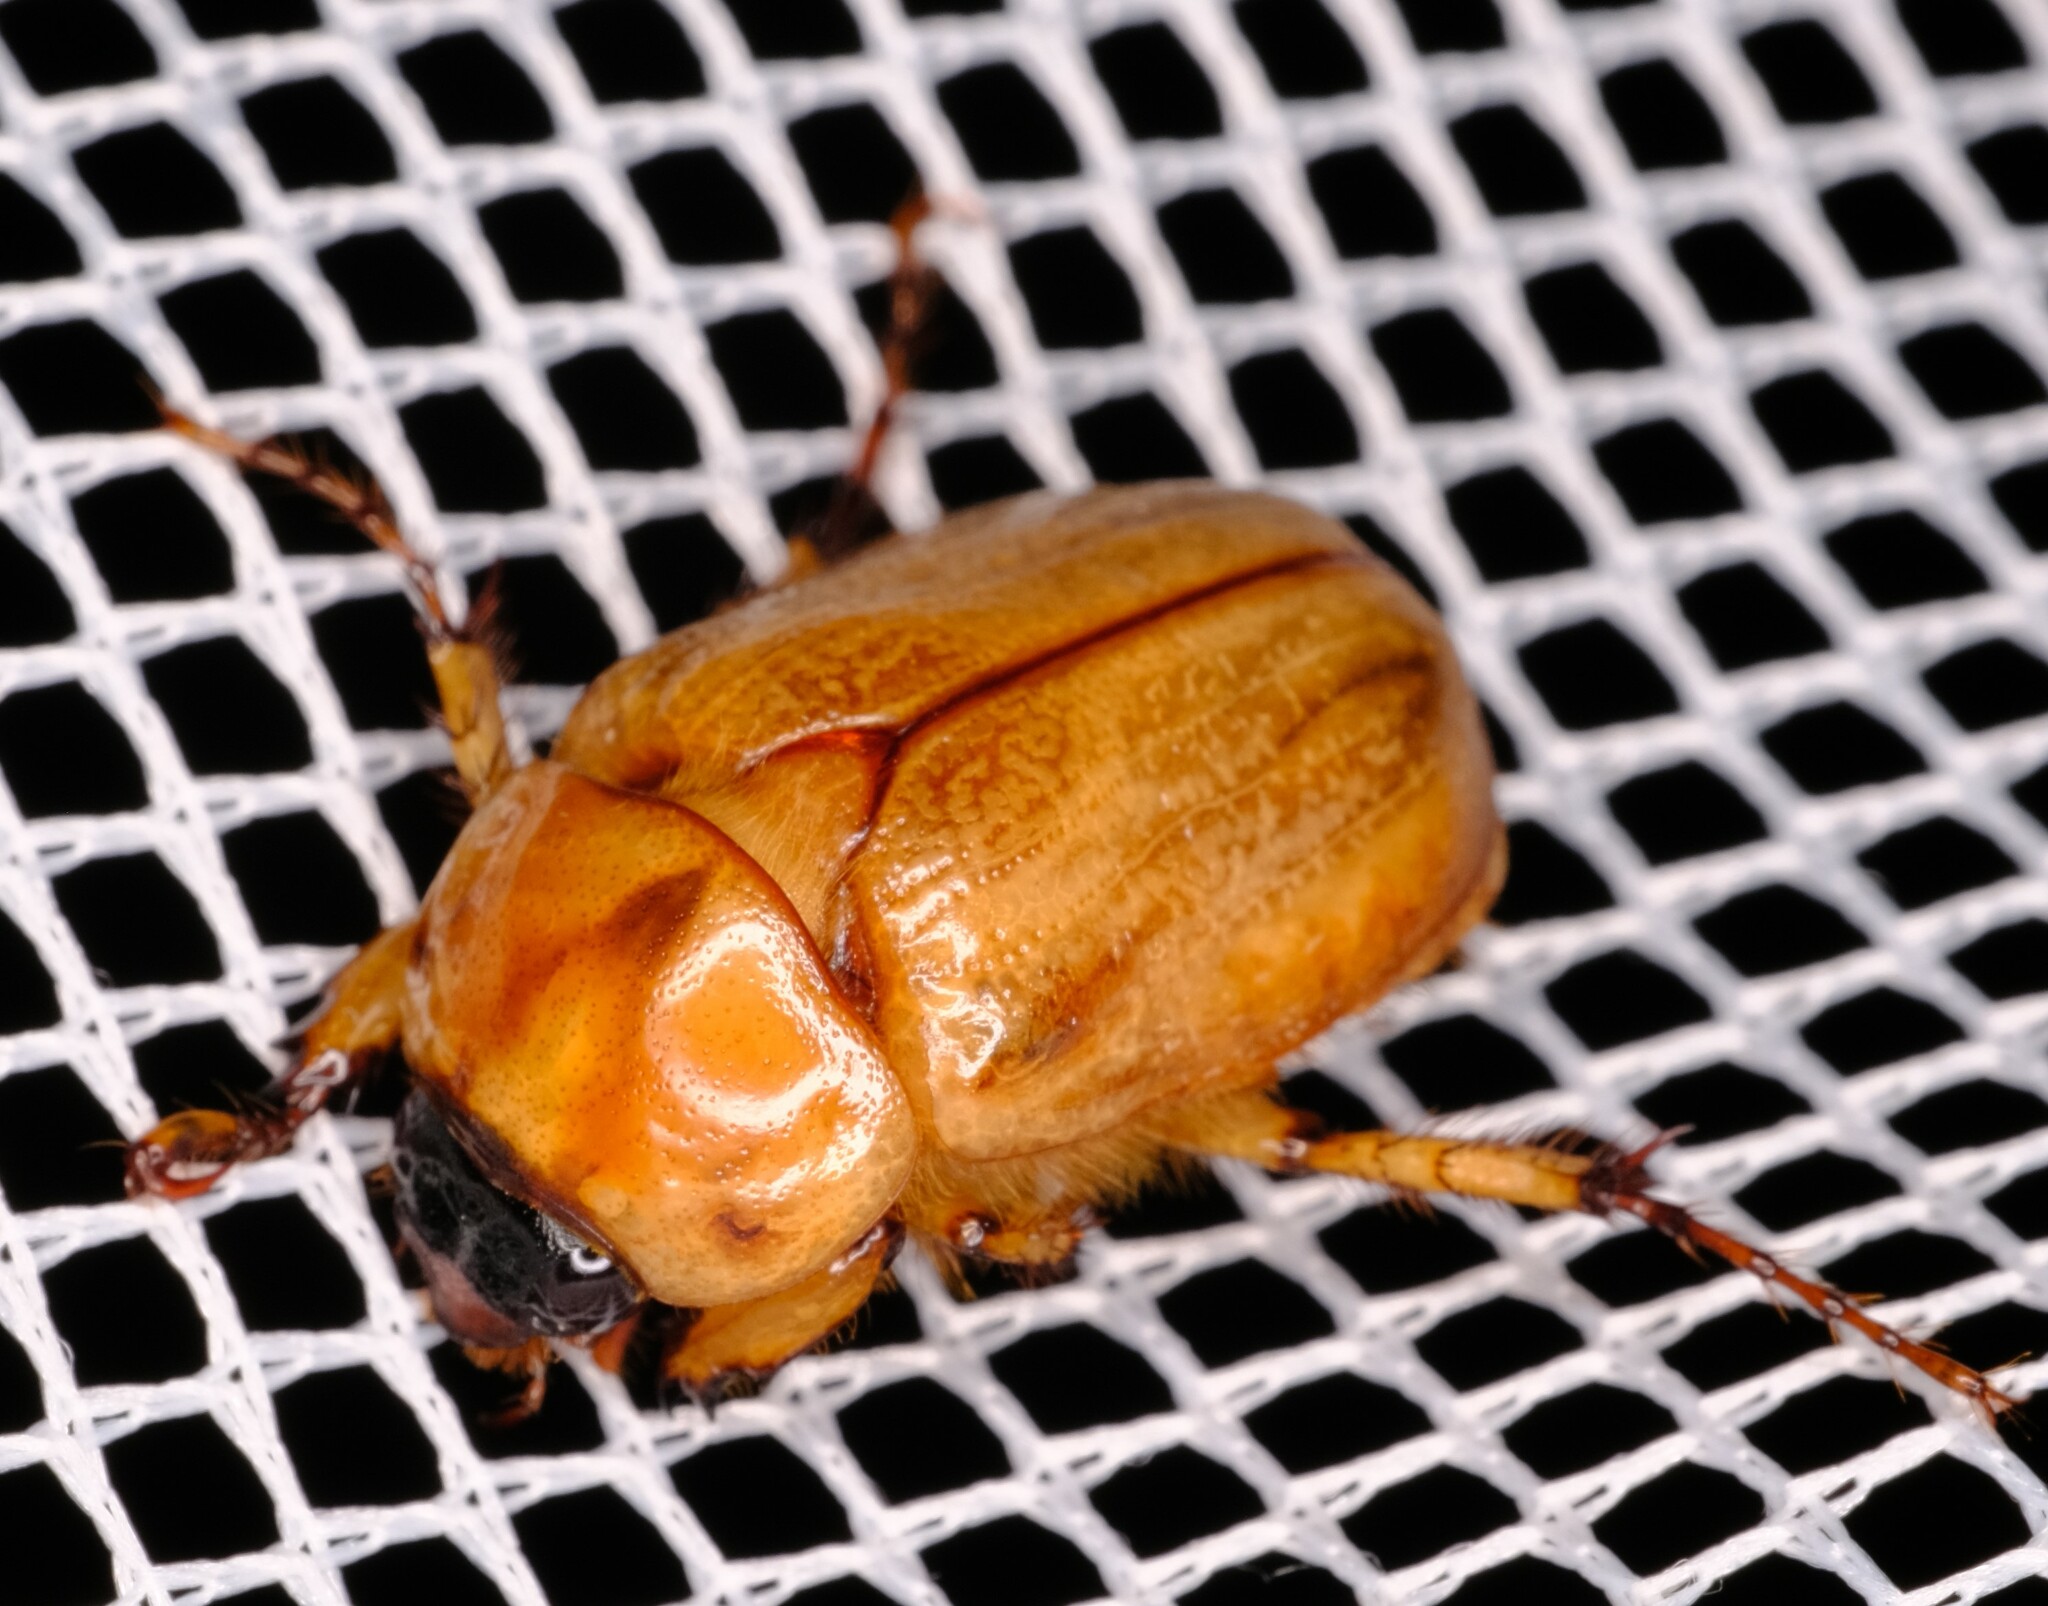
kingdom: Animalia
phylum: Arthropoda
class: Insecta
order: Coleoptera
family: Scarabaeidae
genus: Cyclocephala
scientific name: Cyclocephala signaticollis
